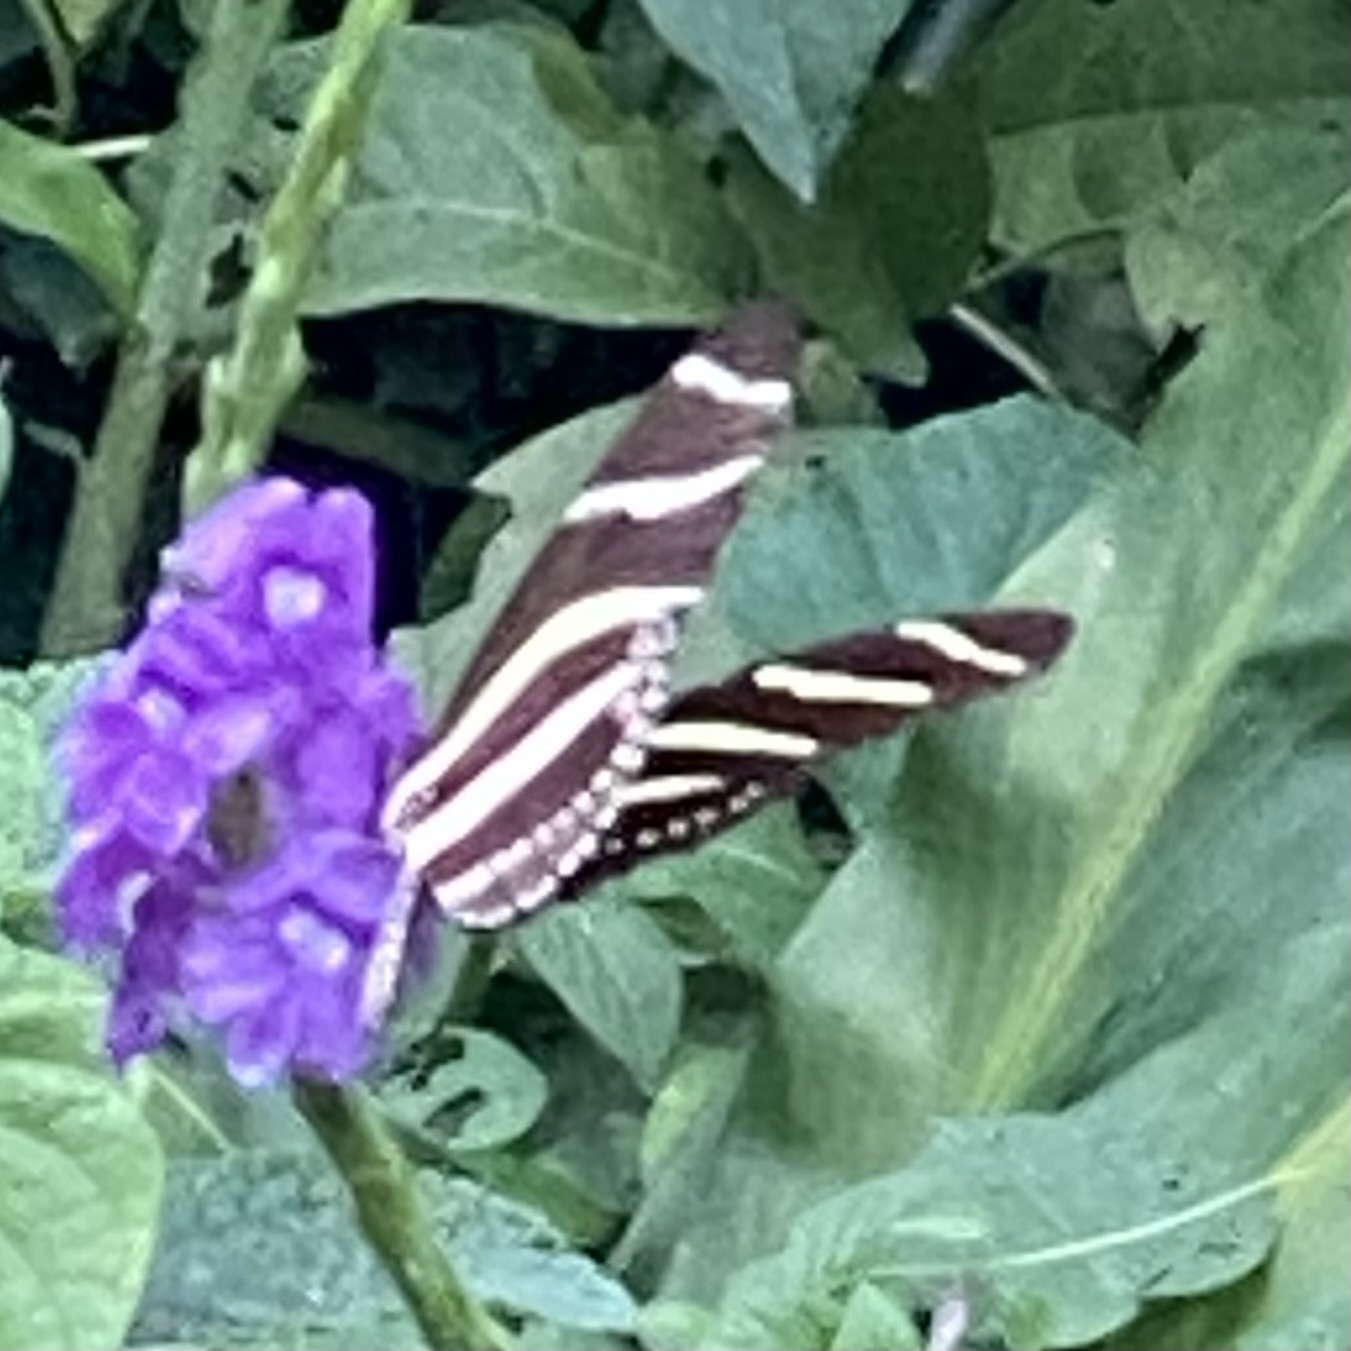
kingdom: Animalia
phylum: Arthropoda
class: Insecta
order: Lepidoptera
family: Nymphalidae
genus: Heliconius
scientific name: Heliconius charithonia
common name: Zebra long wing
